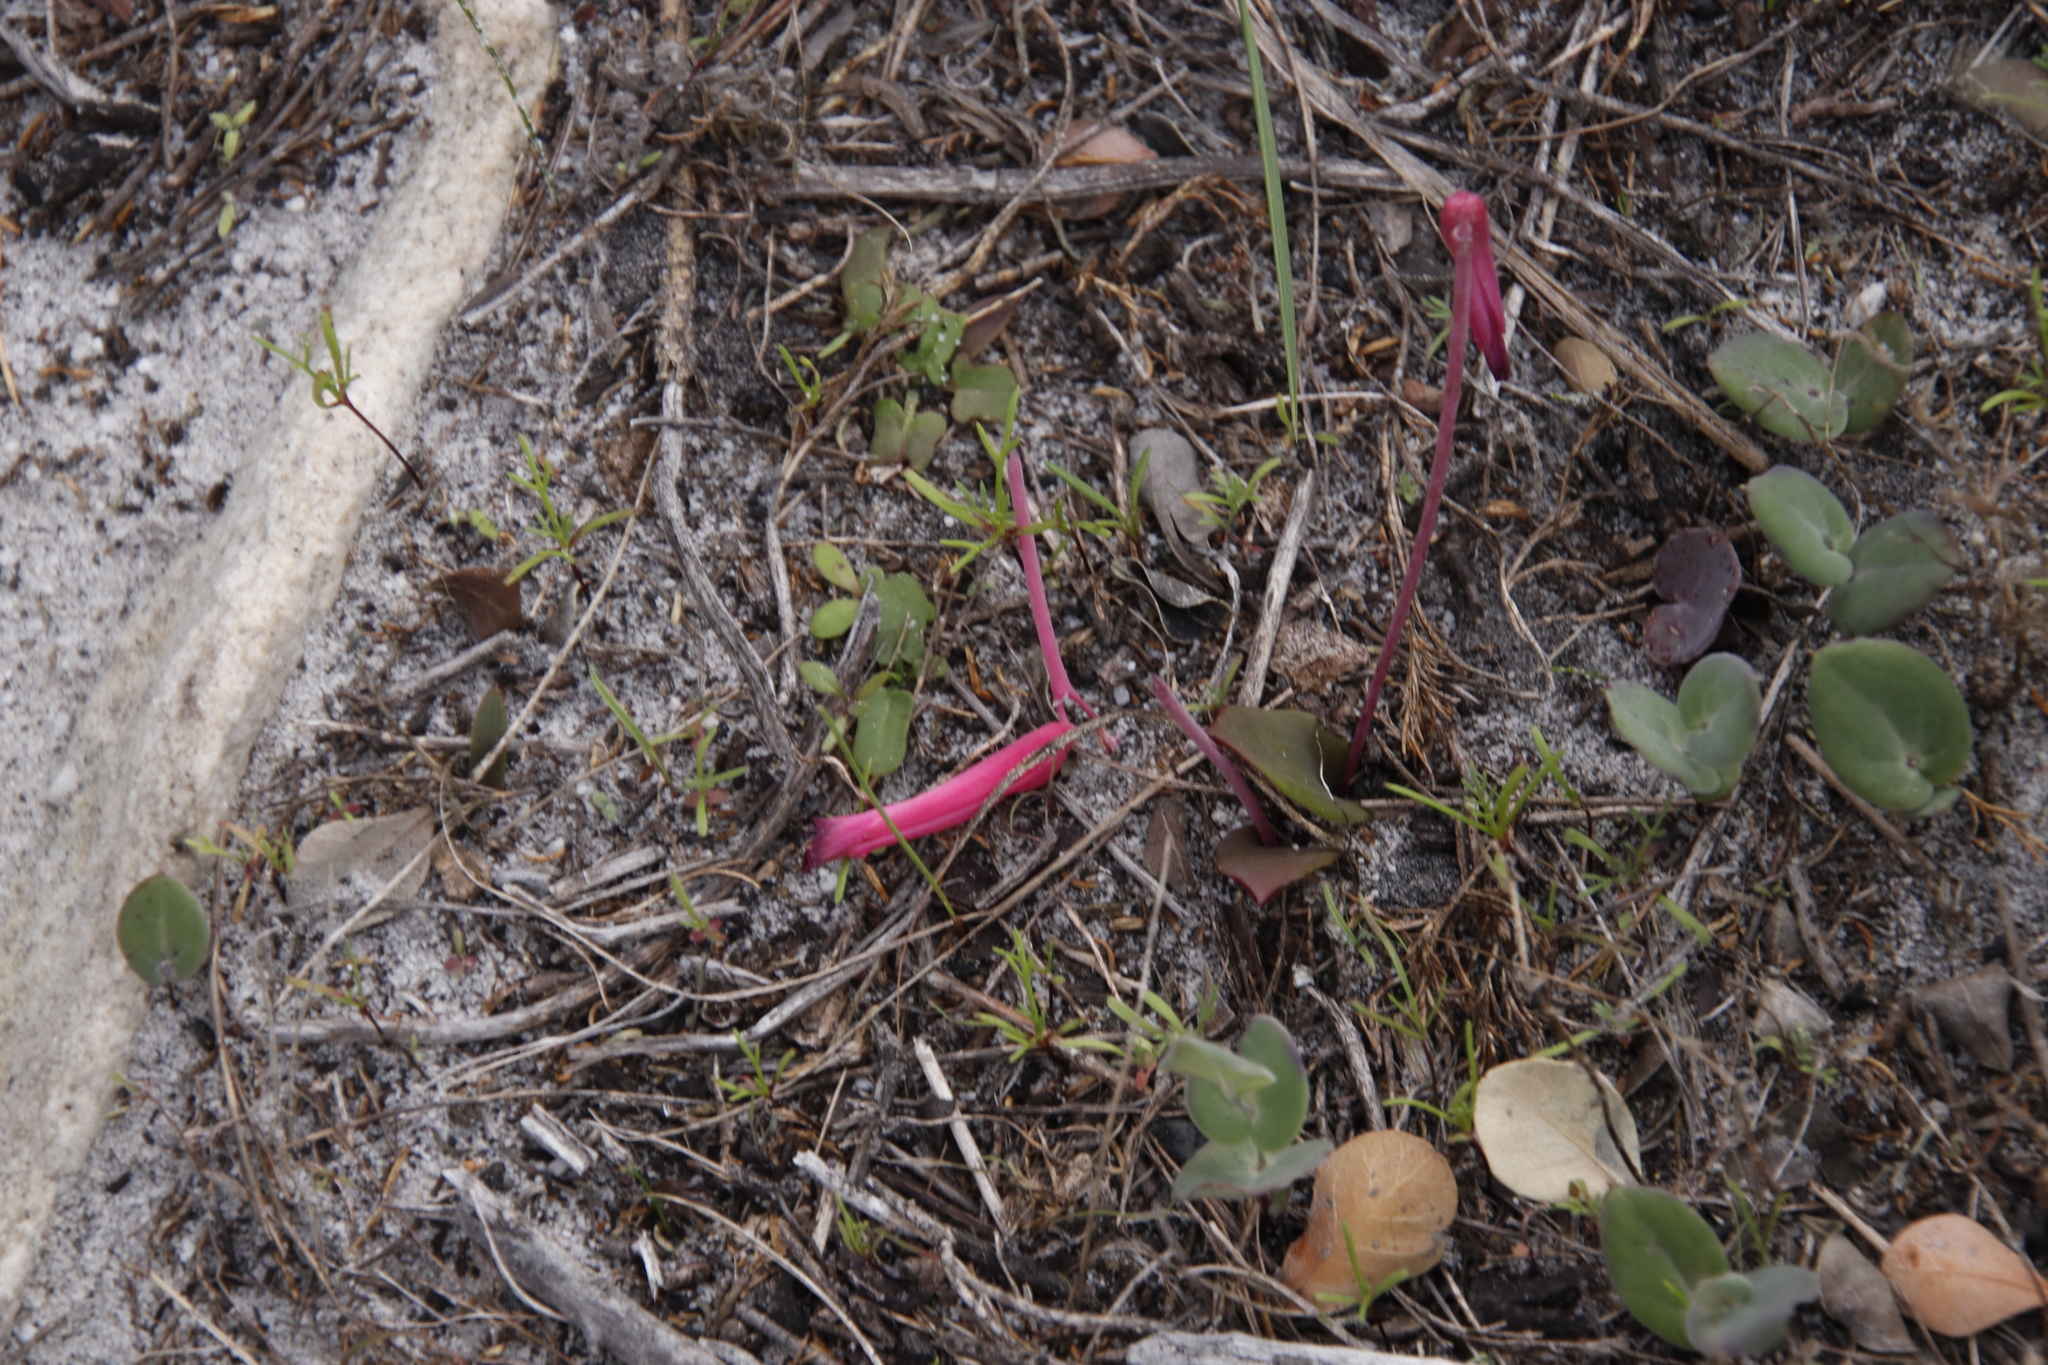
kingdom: Plantae
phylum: Tracheophyta
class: Liliopsida
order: Asparagales
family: Asparagaceae
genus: Lachenalia
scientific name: Lachenalia punctata
